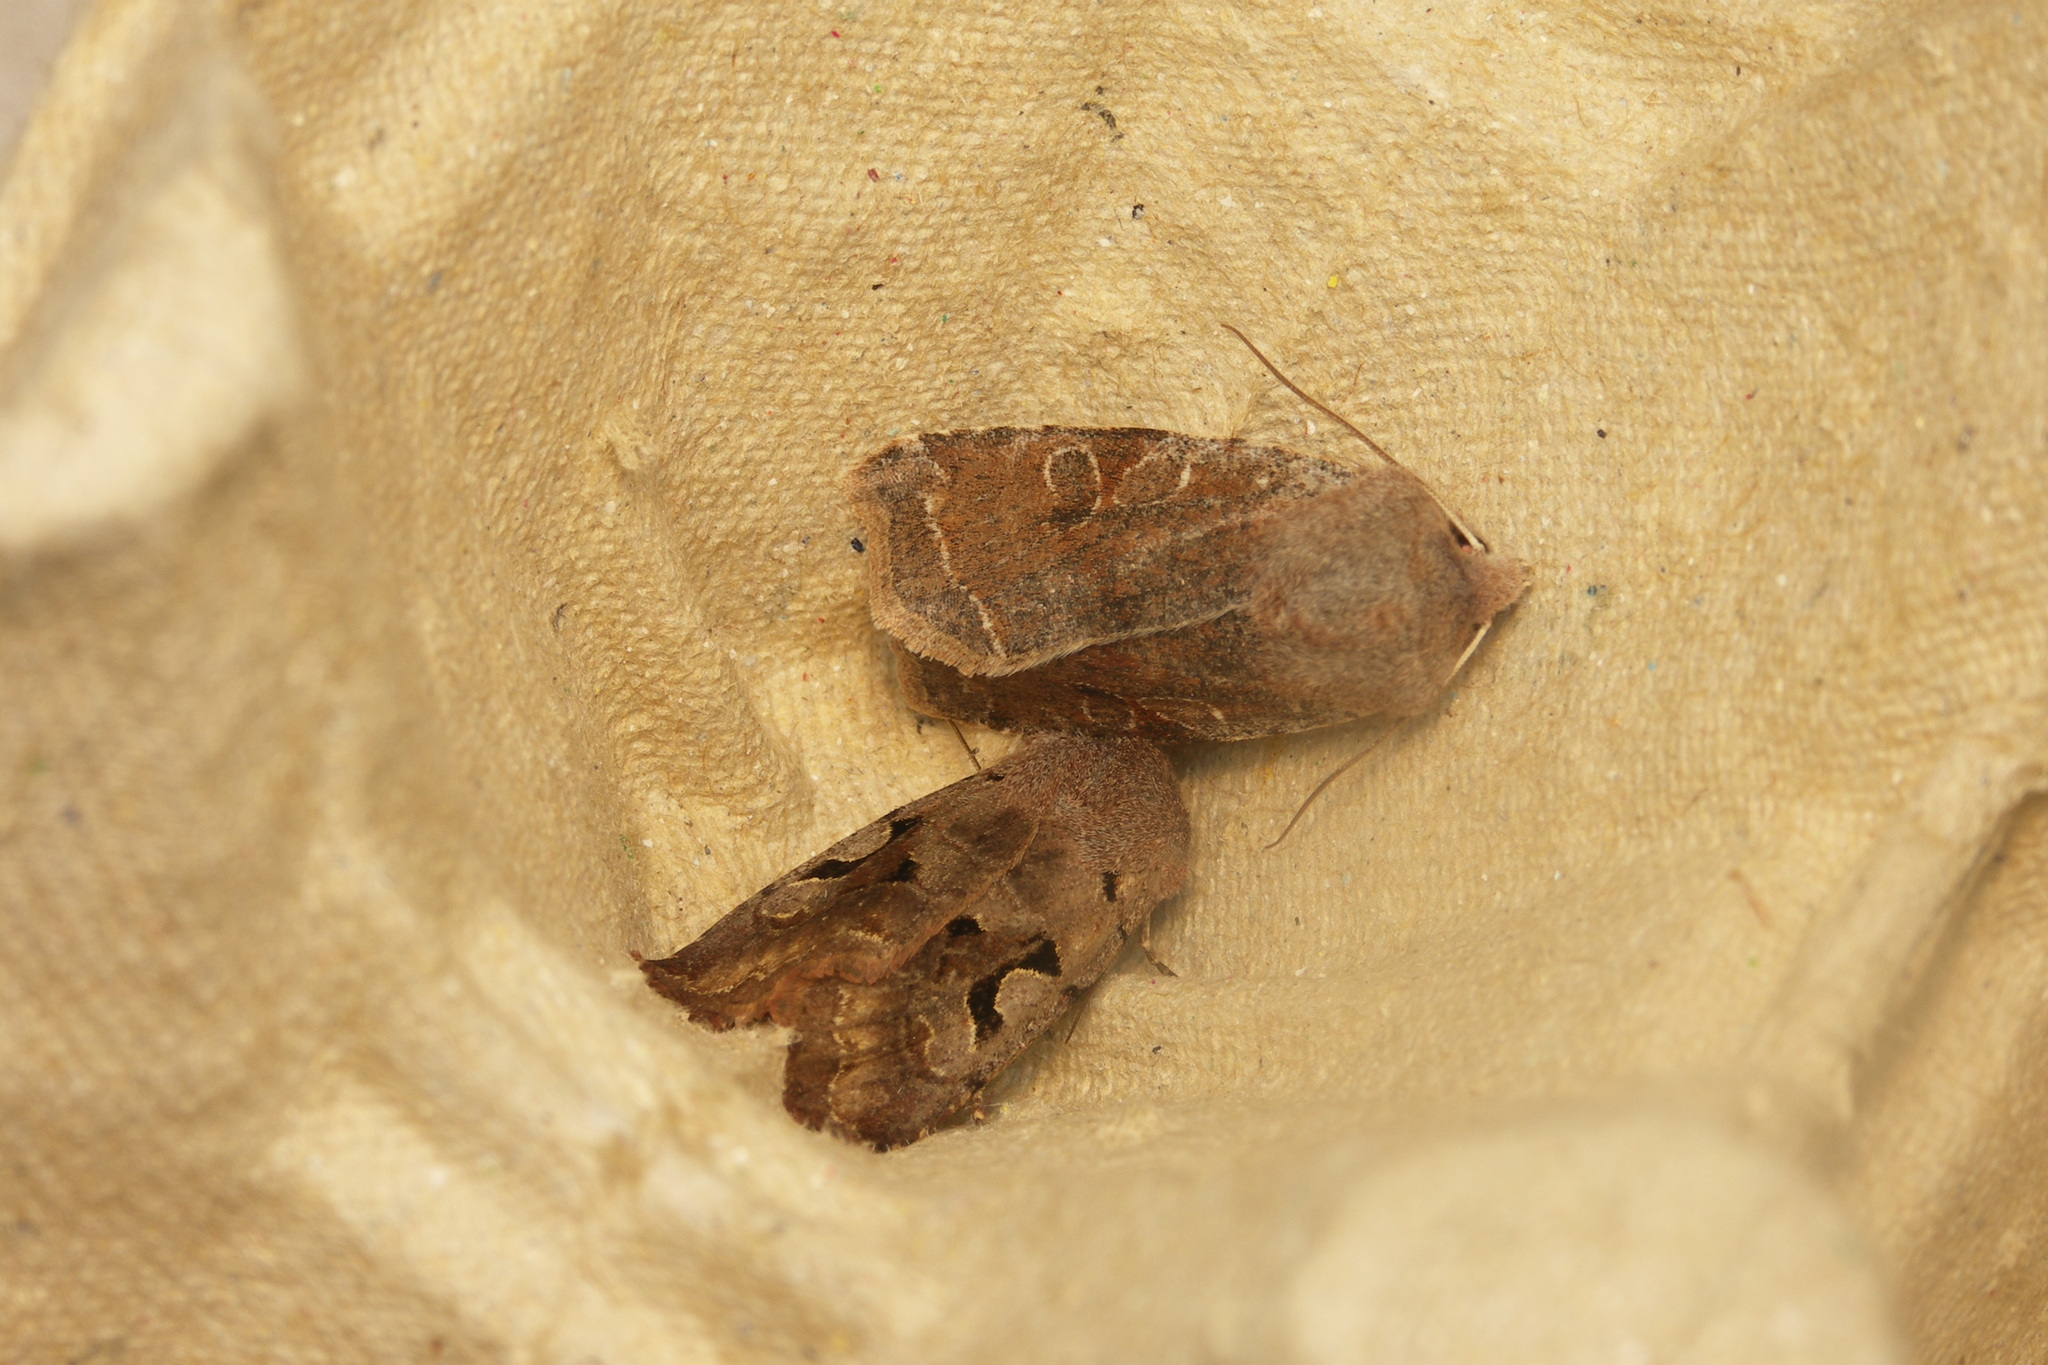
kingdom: Animalia
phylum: Arthropoda
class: Insecta
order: Lepidoptera
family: Noctuidae
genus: Orthosia
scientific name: Orthosia incerta
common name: Clouded drab
